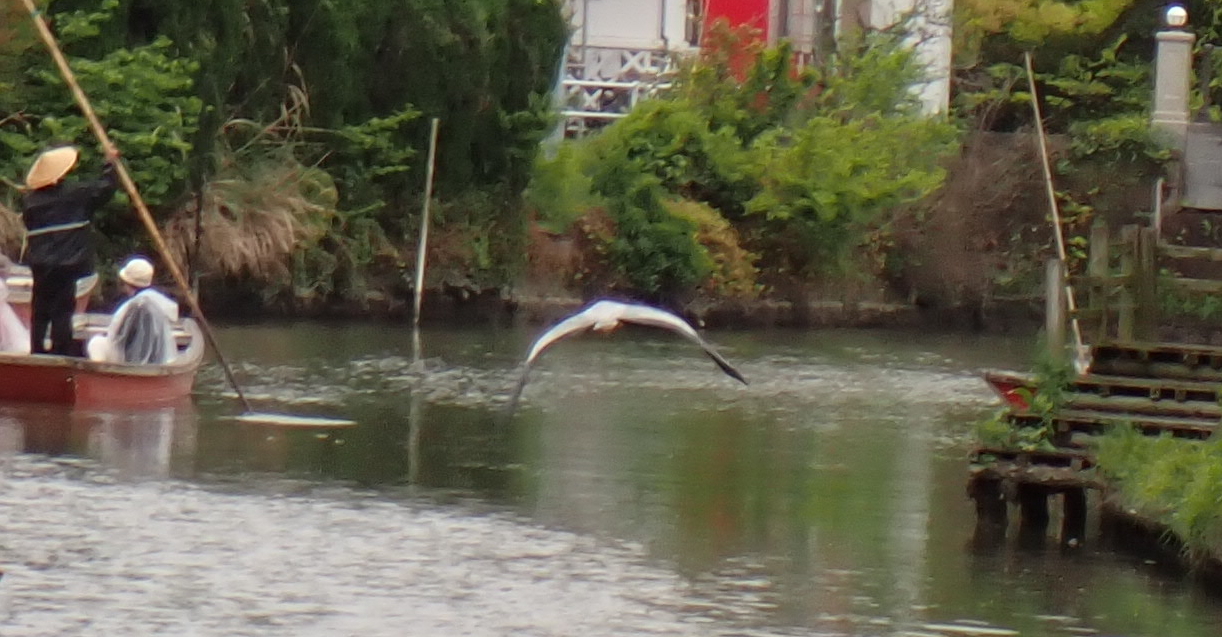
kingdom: Animalia
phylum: Chordata
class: Aves
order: Pelecaniformes
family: Ardeidae
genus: Ardea
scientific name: Ardea cinerea
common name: Grey heron
